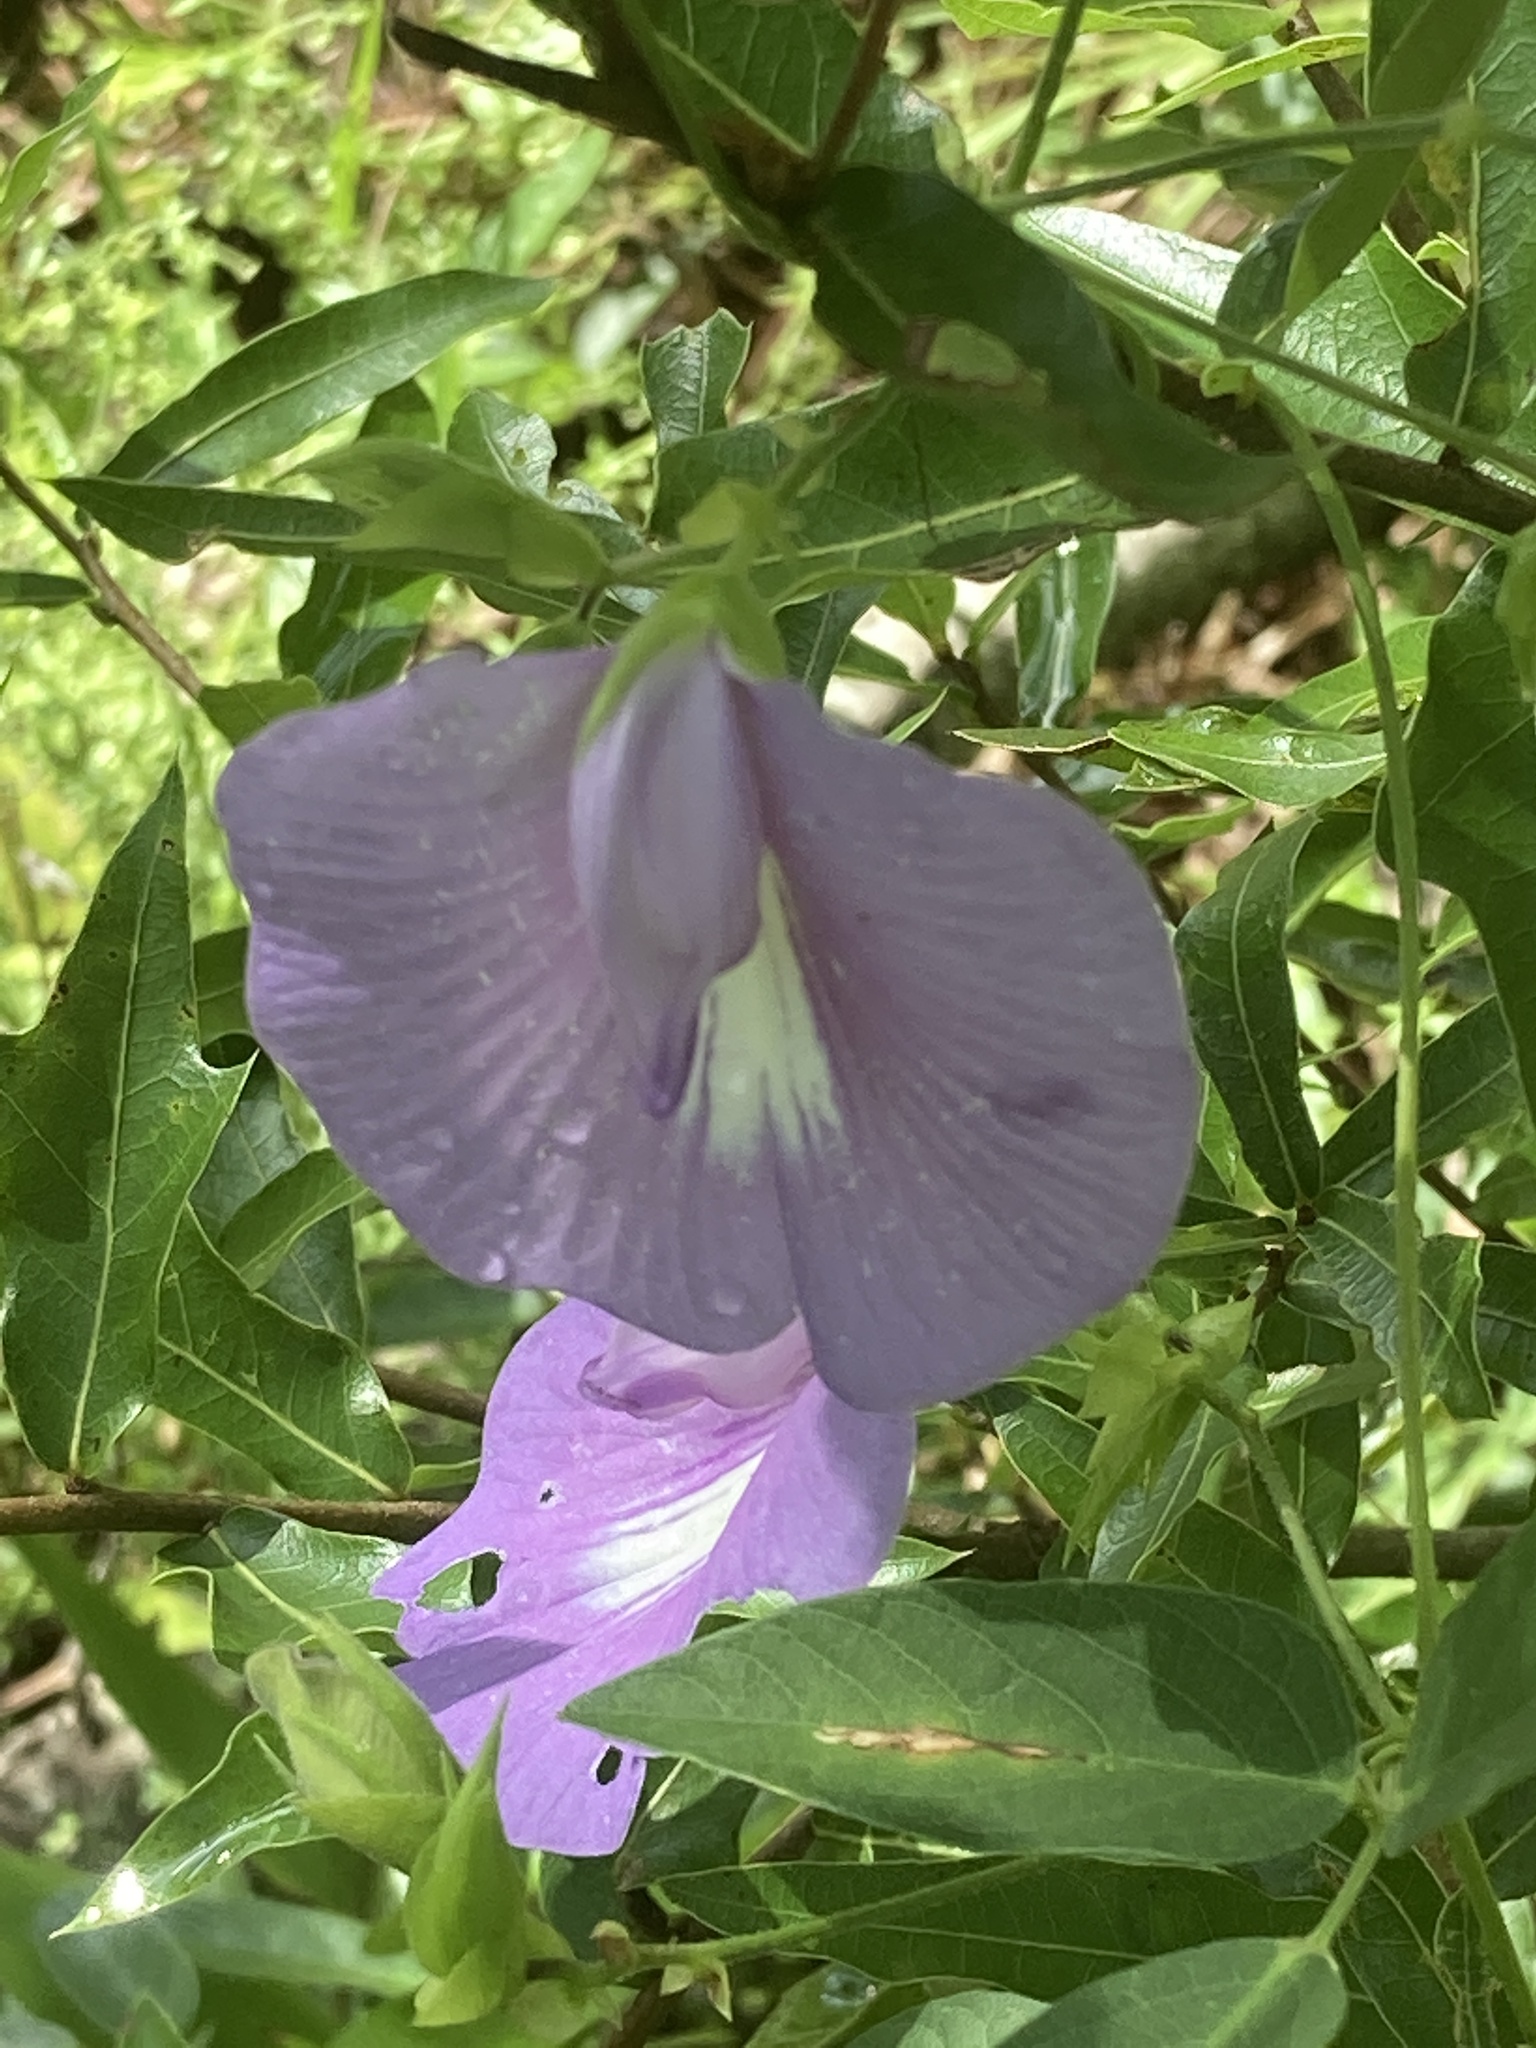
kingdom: Plantae
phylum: Tracheophyta
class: Magnoliopsida
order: Fabales
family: Fabaceae
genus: Centrosema
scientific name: Centrosema virginianum
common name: Butterfly-pea
